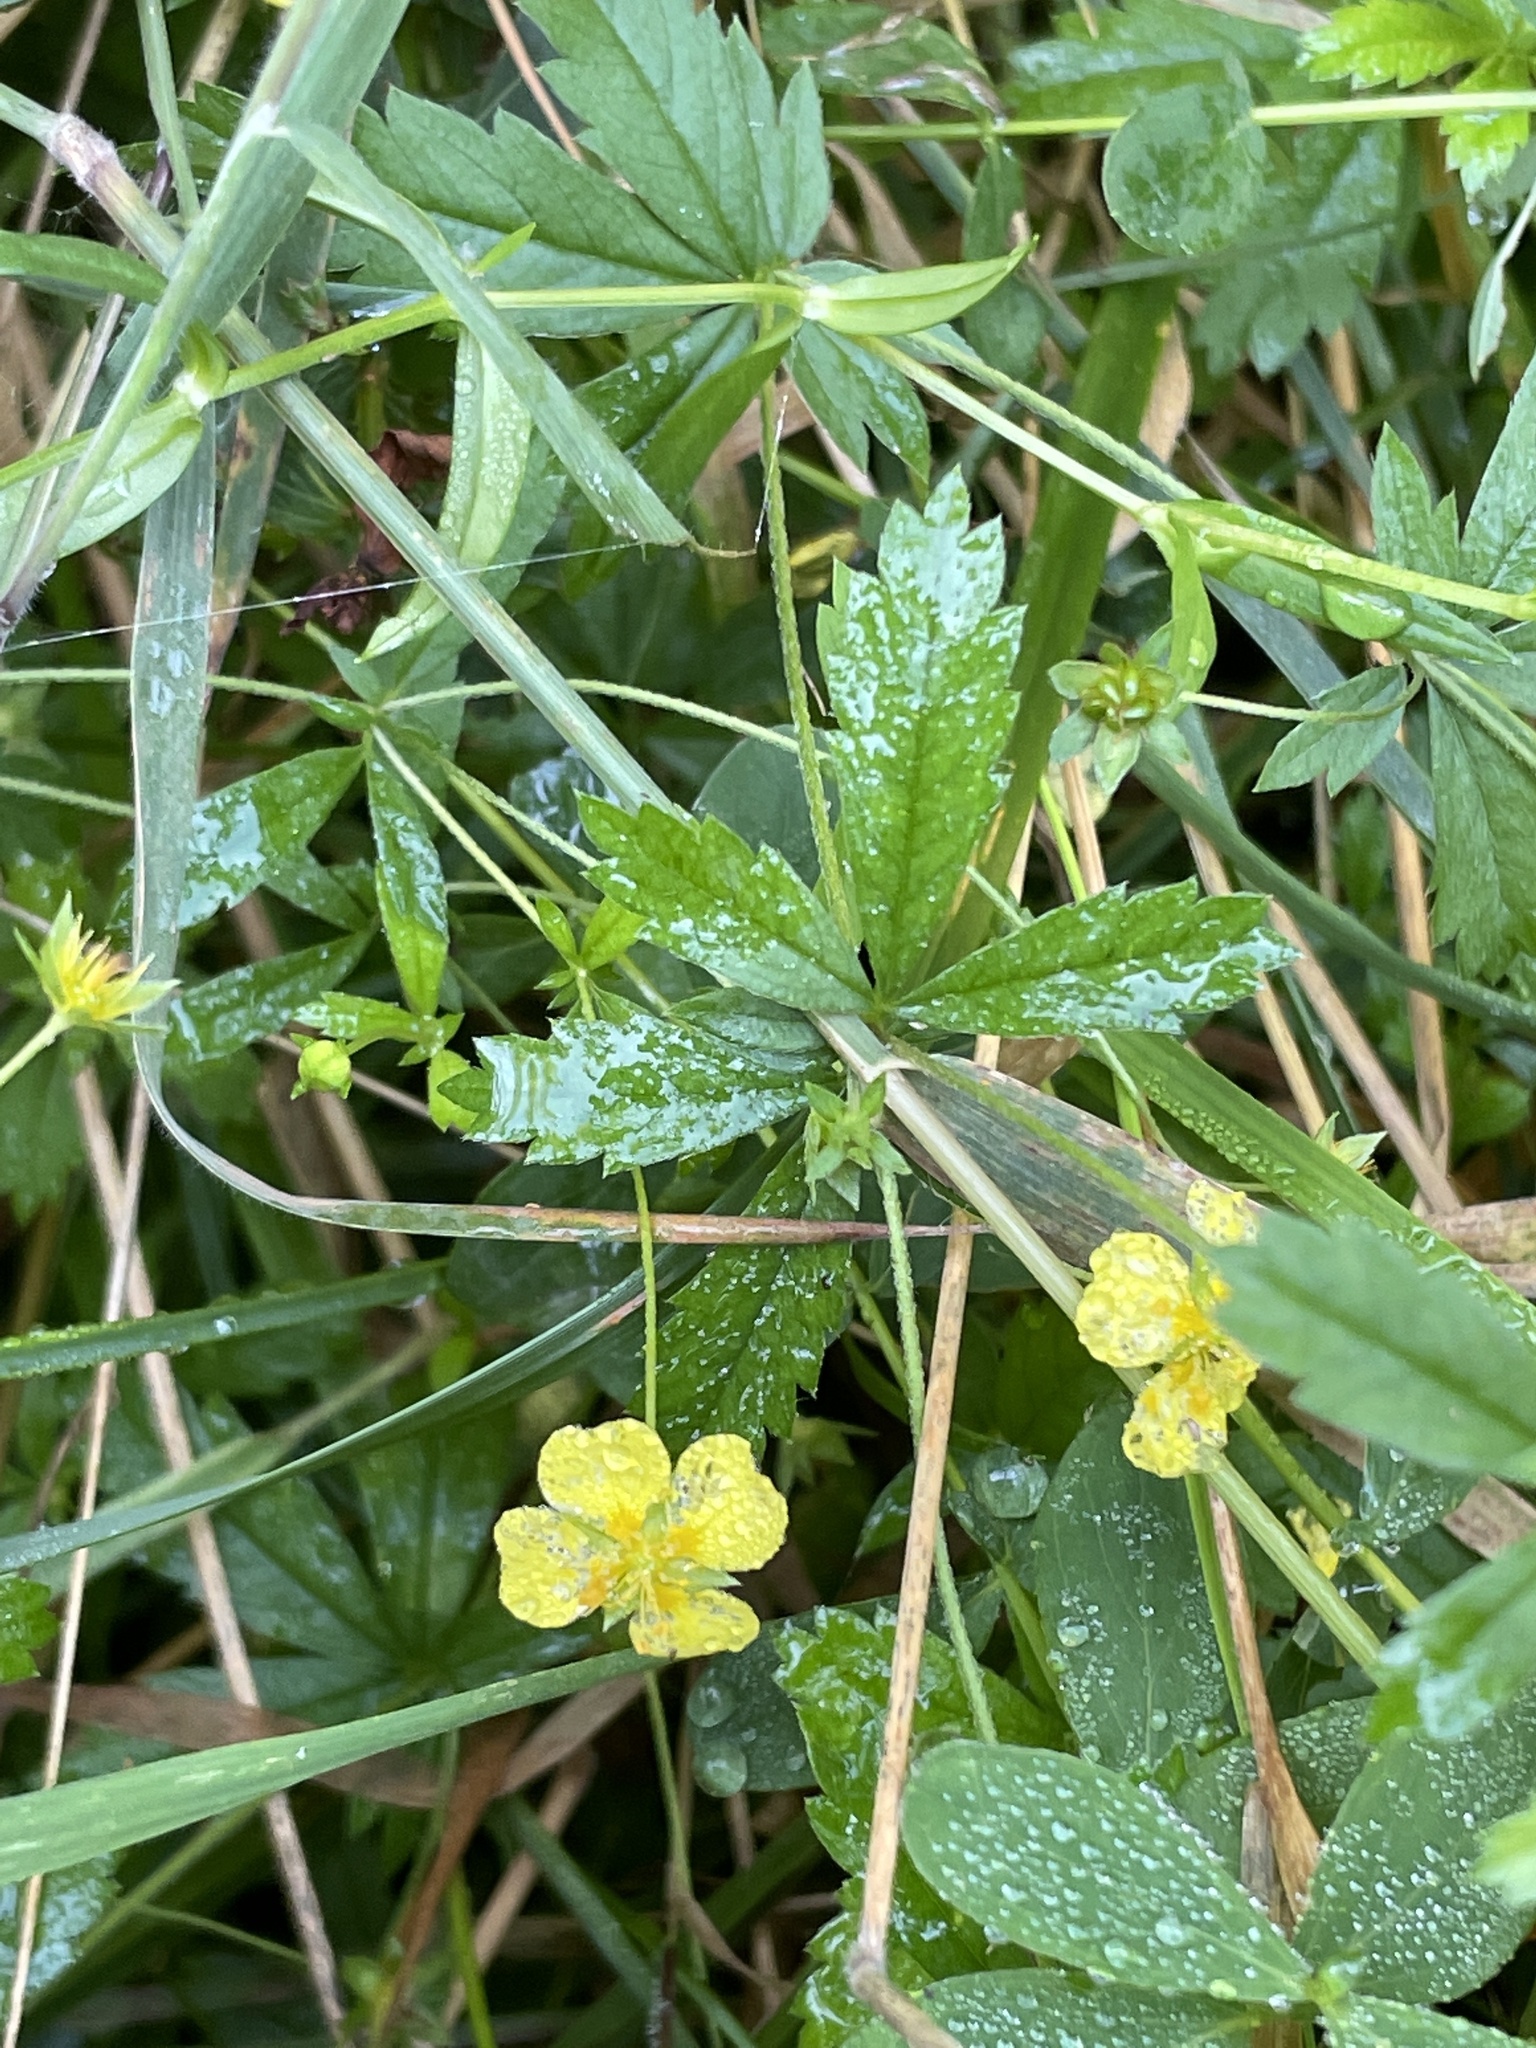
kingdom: Plantae
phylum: Tracheophyta
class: Magnoliopsida
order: Rosales
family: Rosaceae
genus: Potentilla
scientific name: Potentilla erecta
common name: Tormentil
